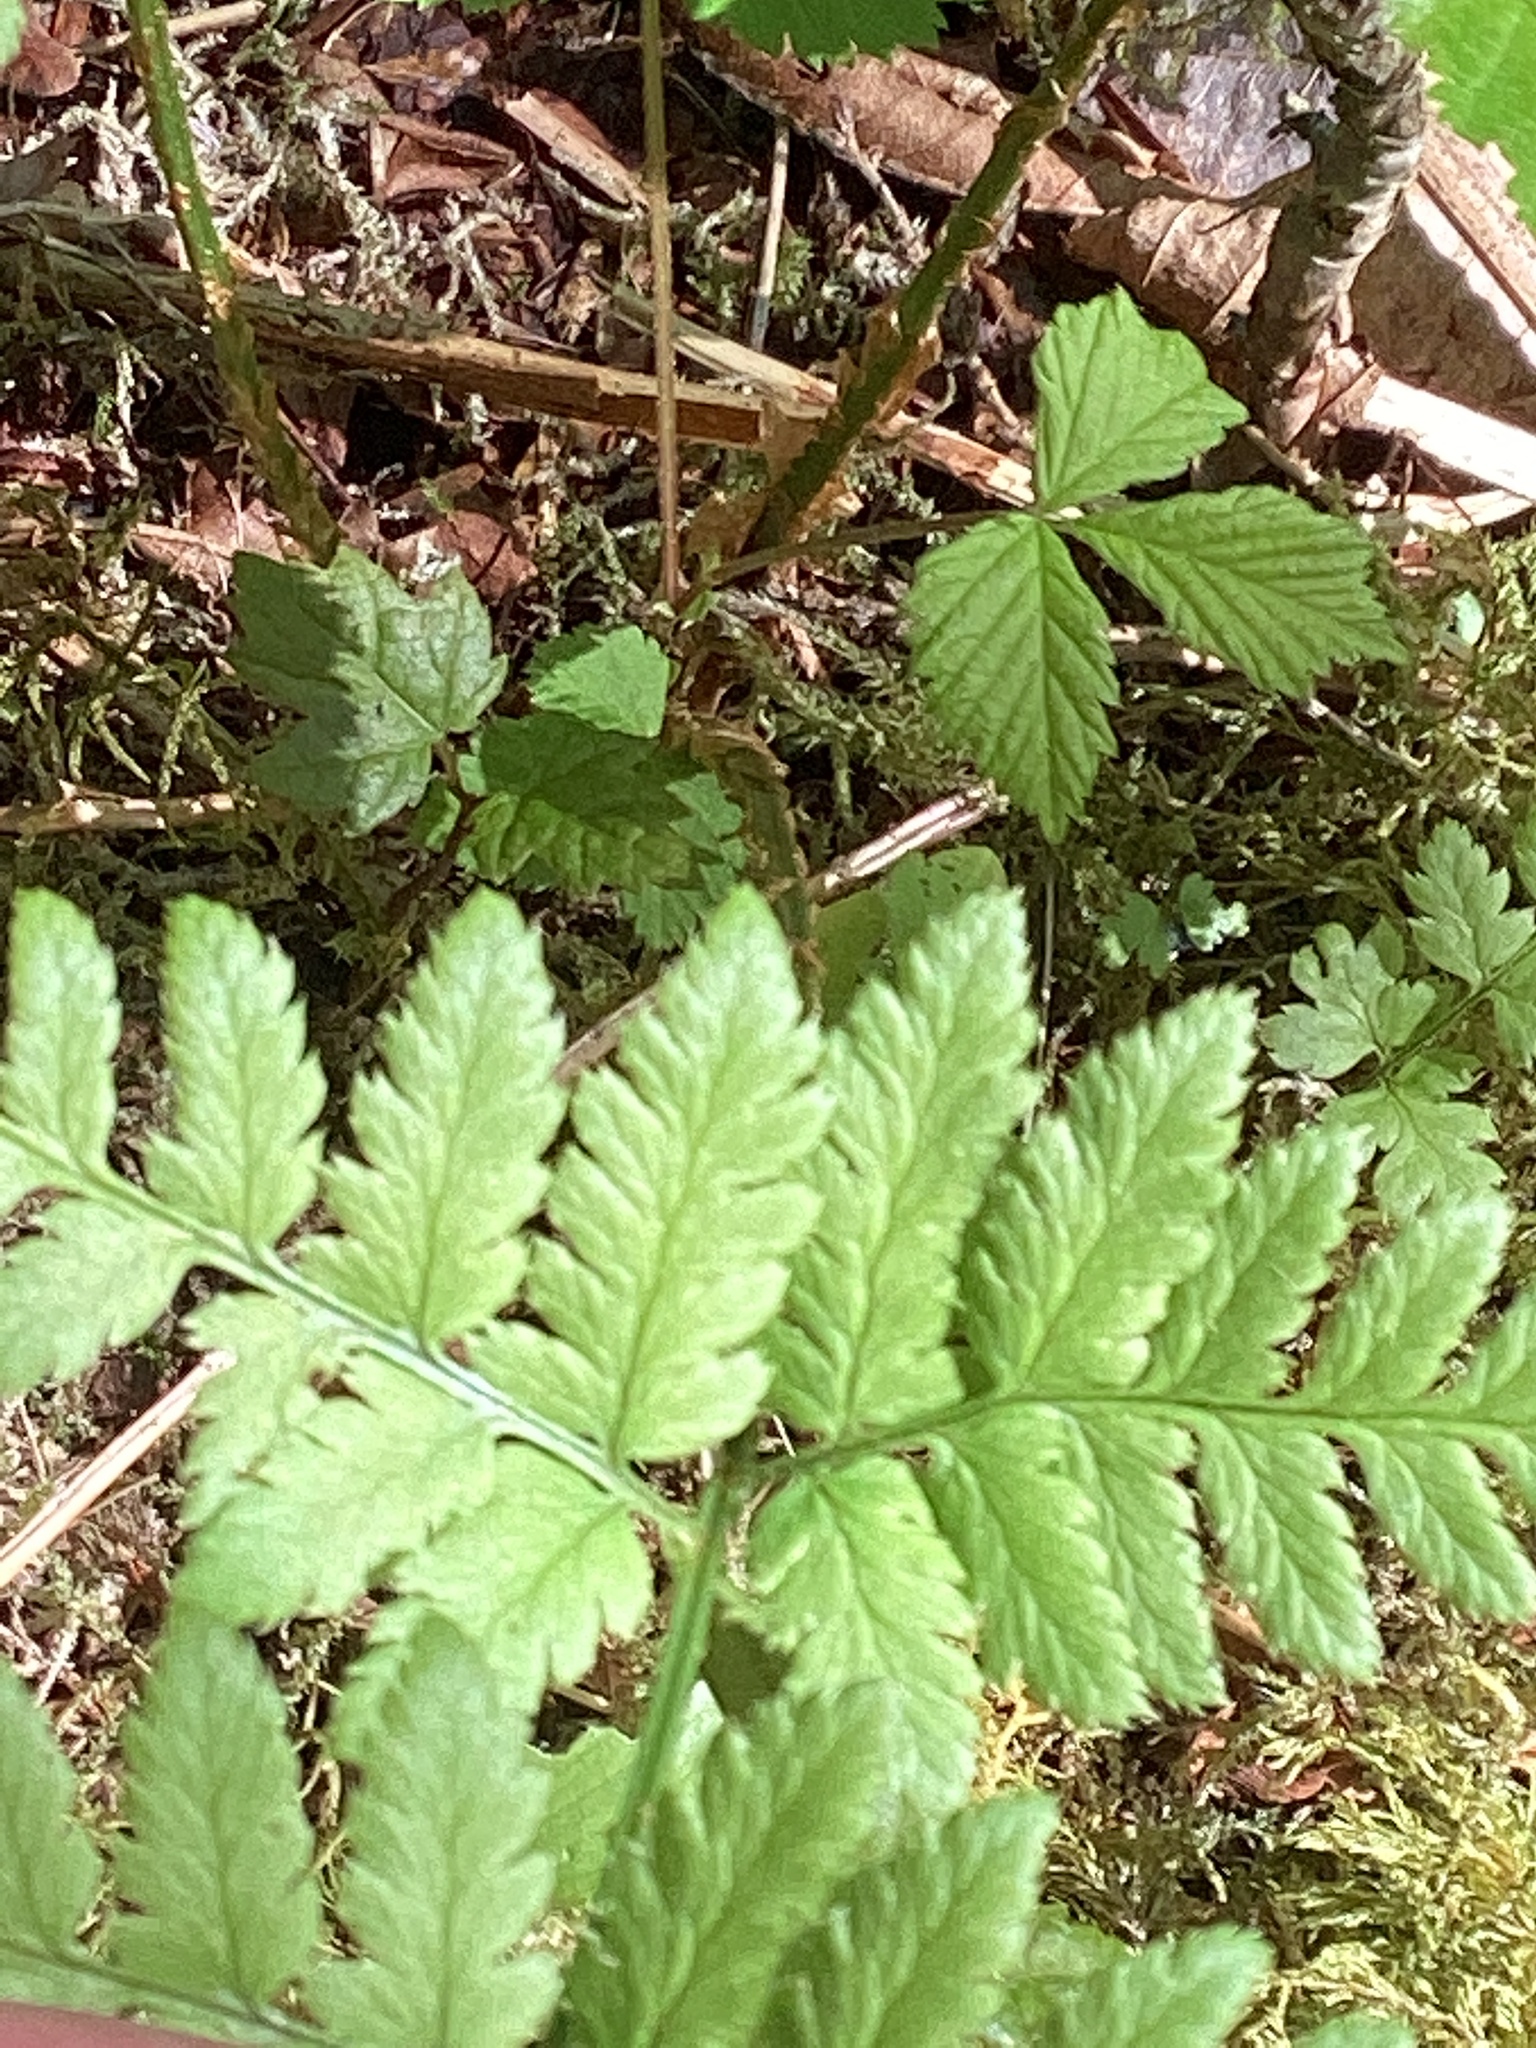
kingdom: Plantae
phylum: Tracheophyta
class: Polypodiopsida
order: Polypodiales
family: Dryopteridaceae
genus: Dryopteris
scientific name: Dryopteris carthusiana
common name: Narrow buckler-fern
